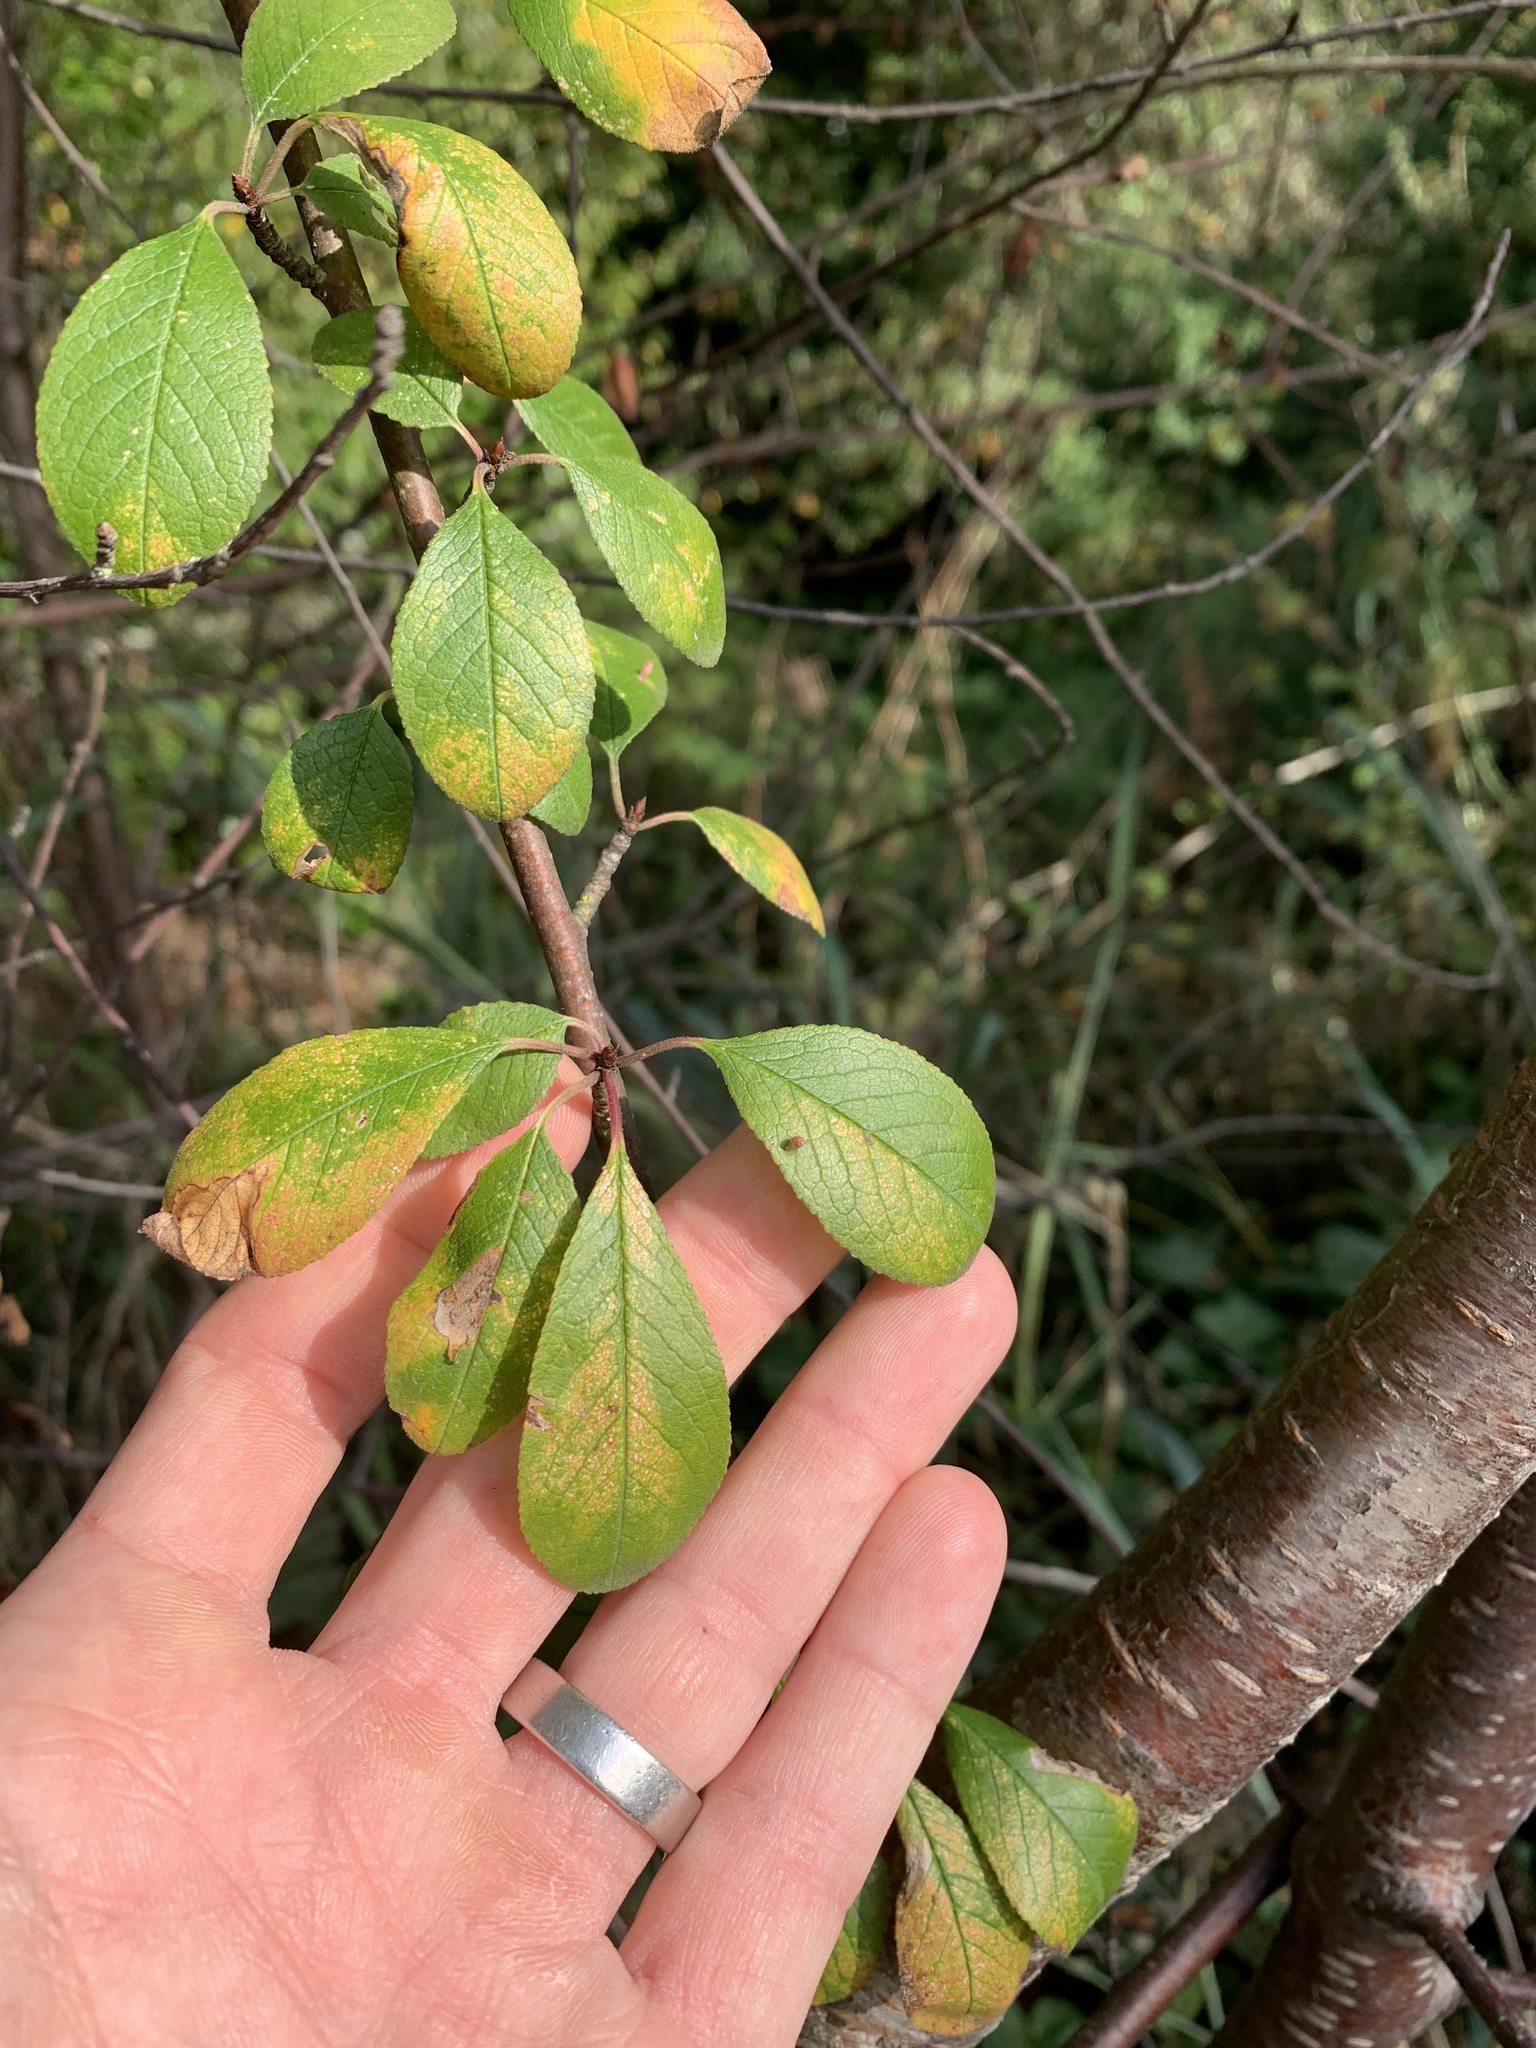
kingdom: Plantae
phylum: Tracheophyta
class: Magnoliopsida
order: Rosales
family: Rosaceae
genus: Prunus
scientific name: Prunus emarginata
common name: Bitter cherry
